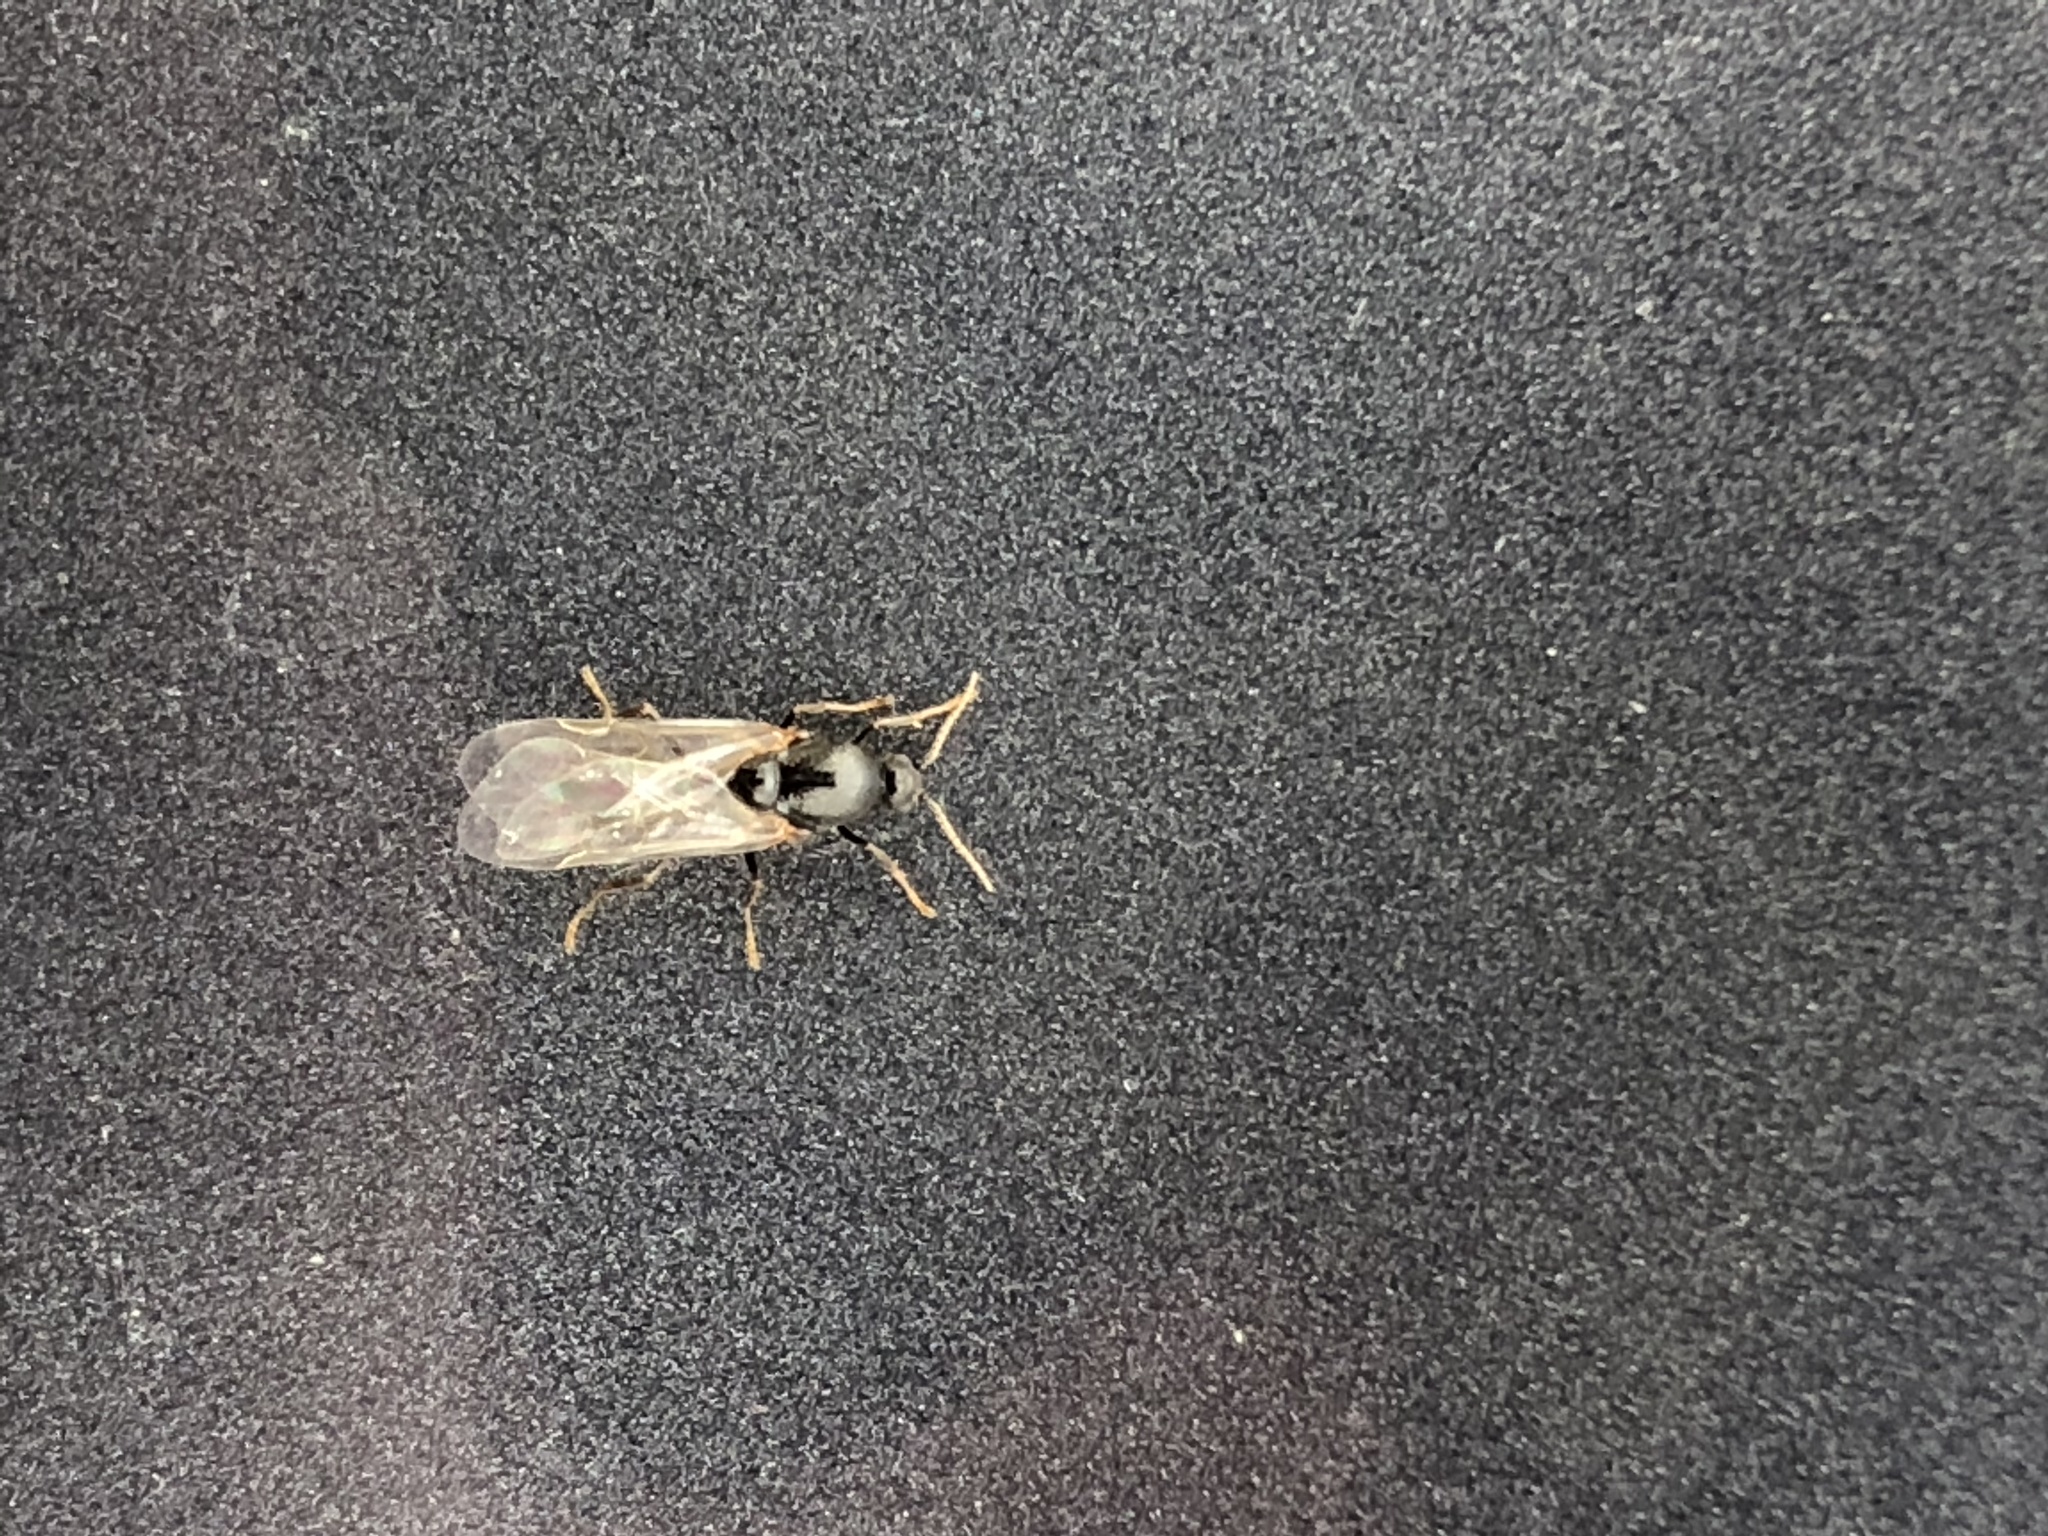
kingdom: Animalia
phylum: Arthropoda
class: Insecta
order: Hymenoptera
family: Formicidae
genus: Solenopsis
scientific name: Solenopsis invicta
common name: Red imported fire ant
